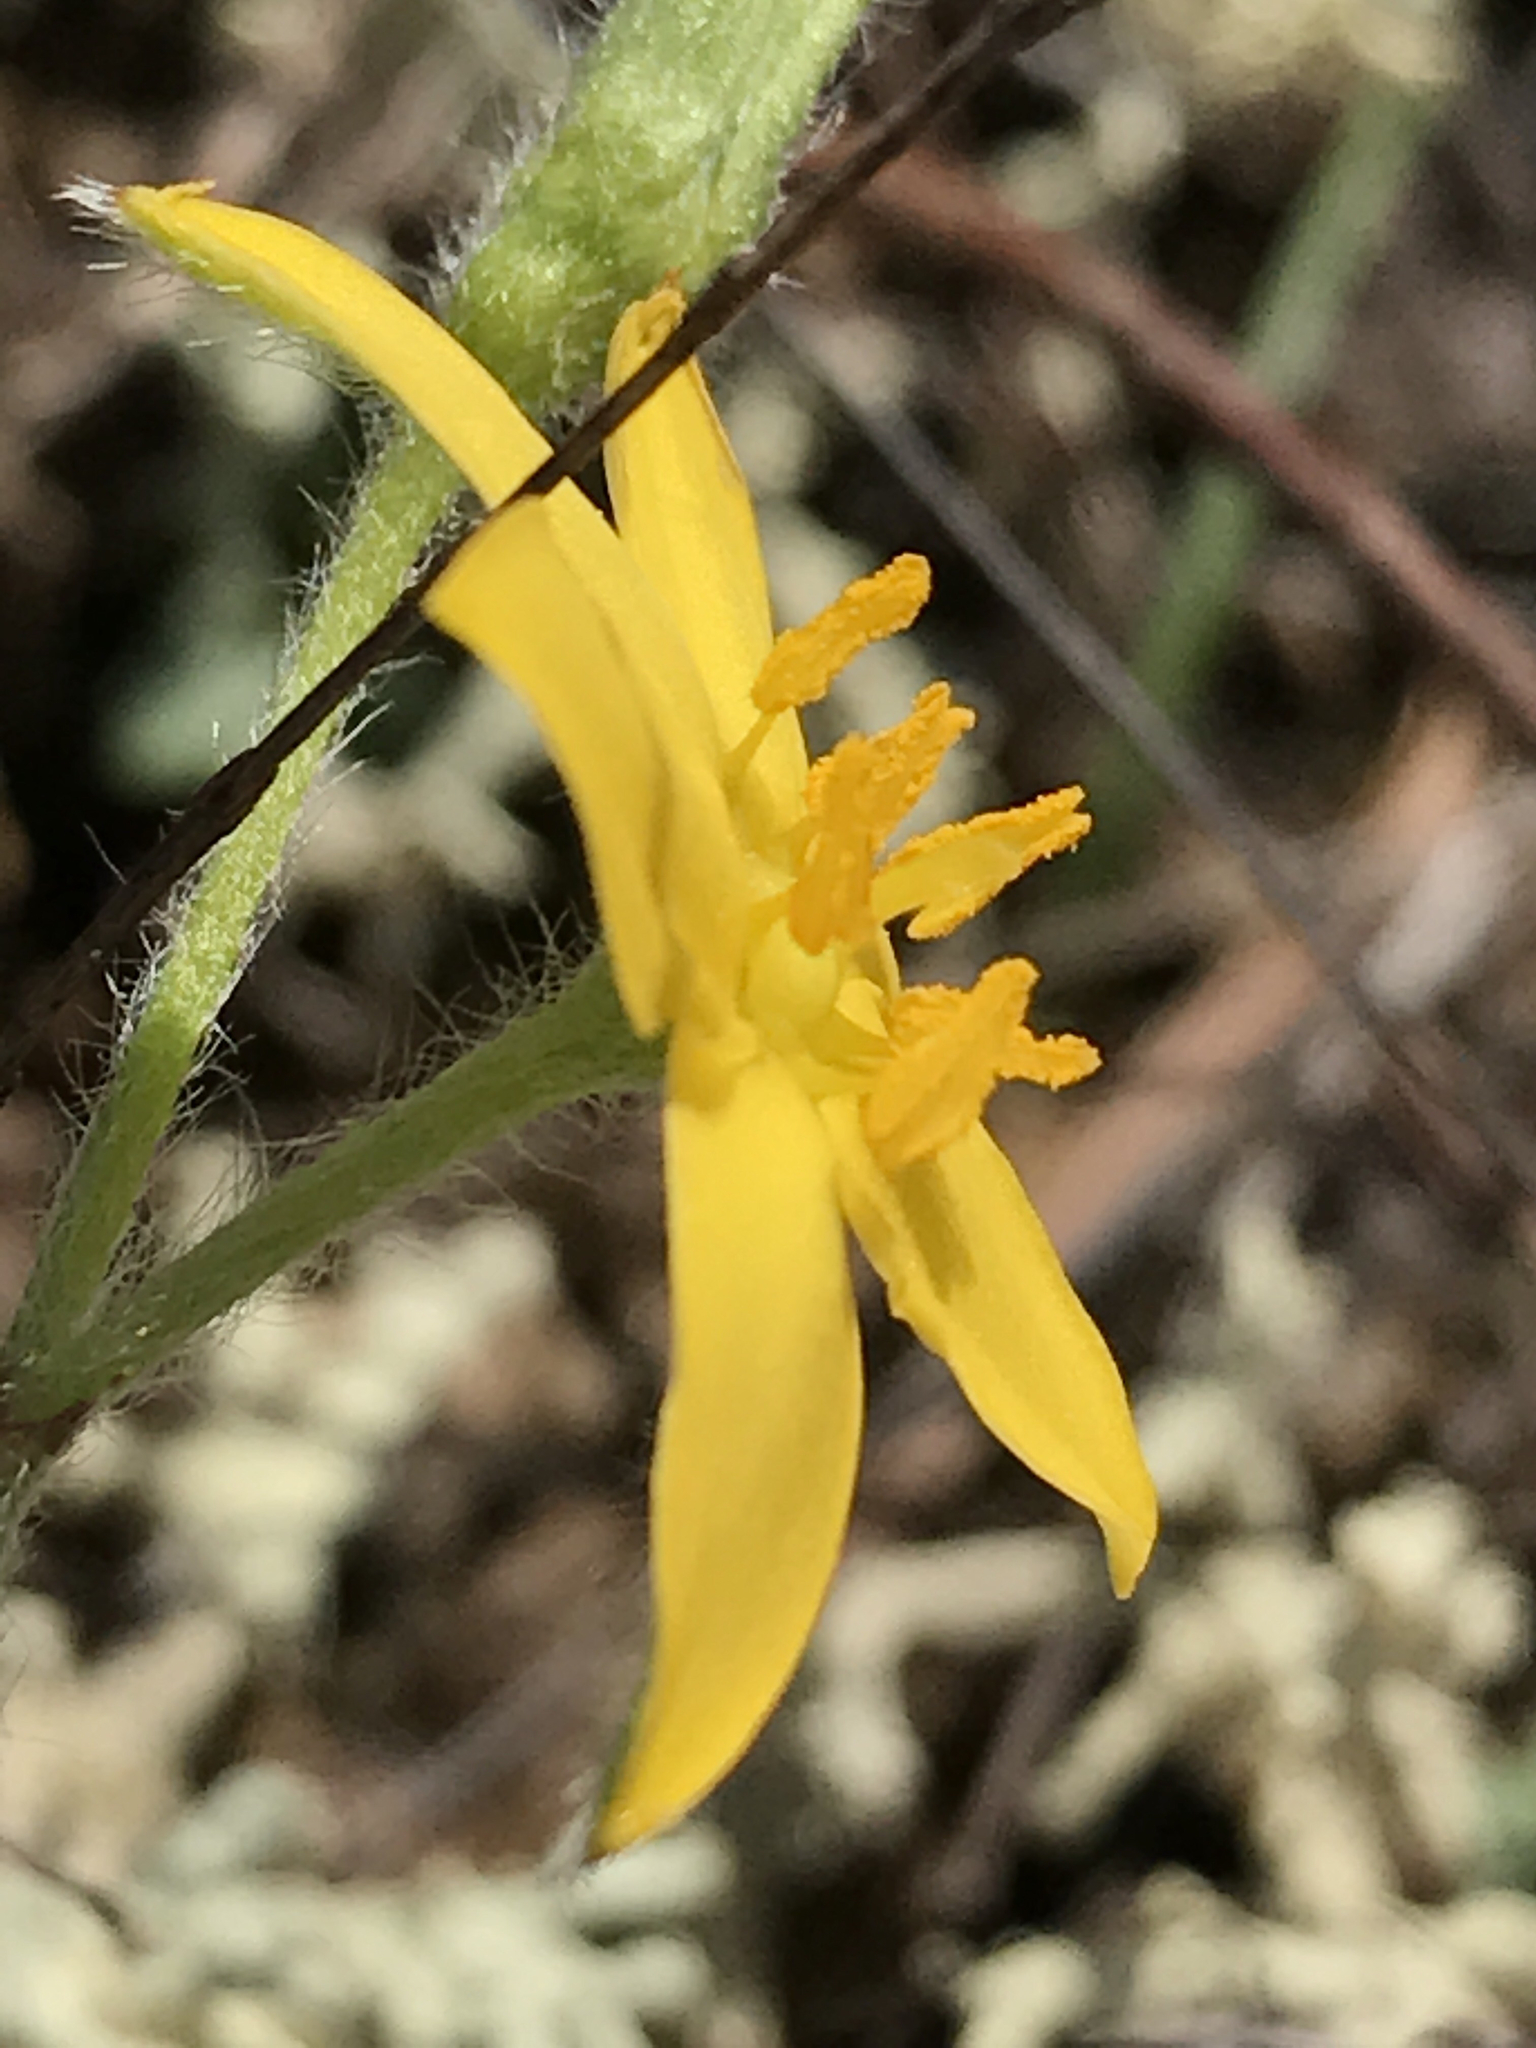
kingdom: Plantae
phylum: Tracheophyta
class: Liliopsida
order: Asparagales
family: Hypoxidaceae
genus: Hypoxis
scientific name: Hypoxis hirsuta
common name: Common goldstar
